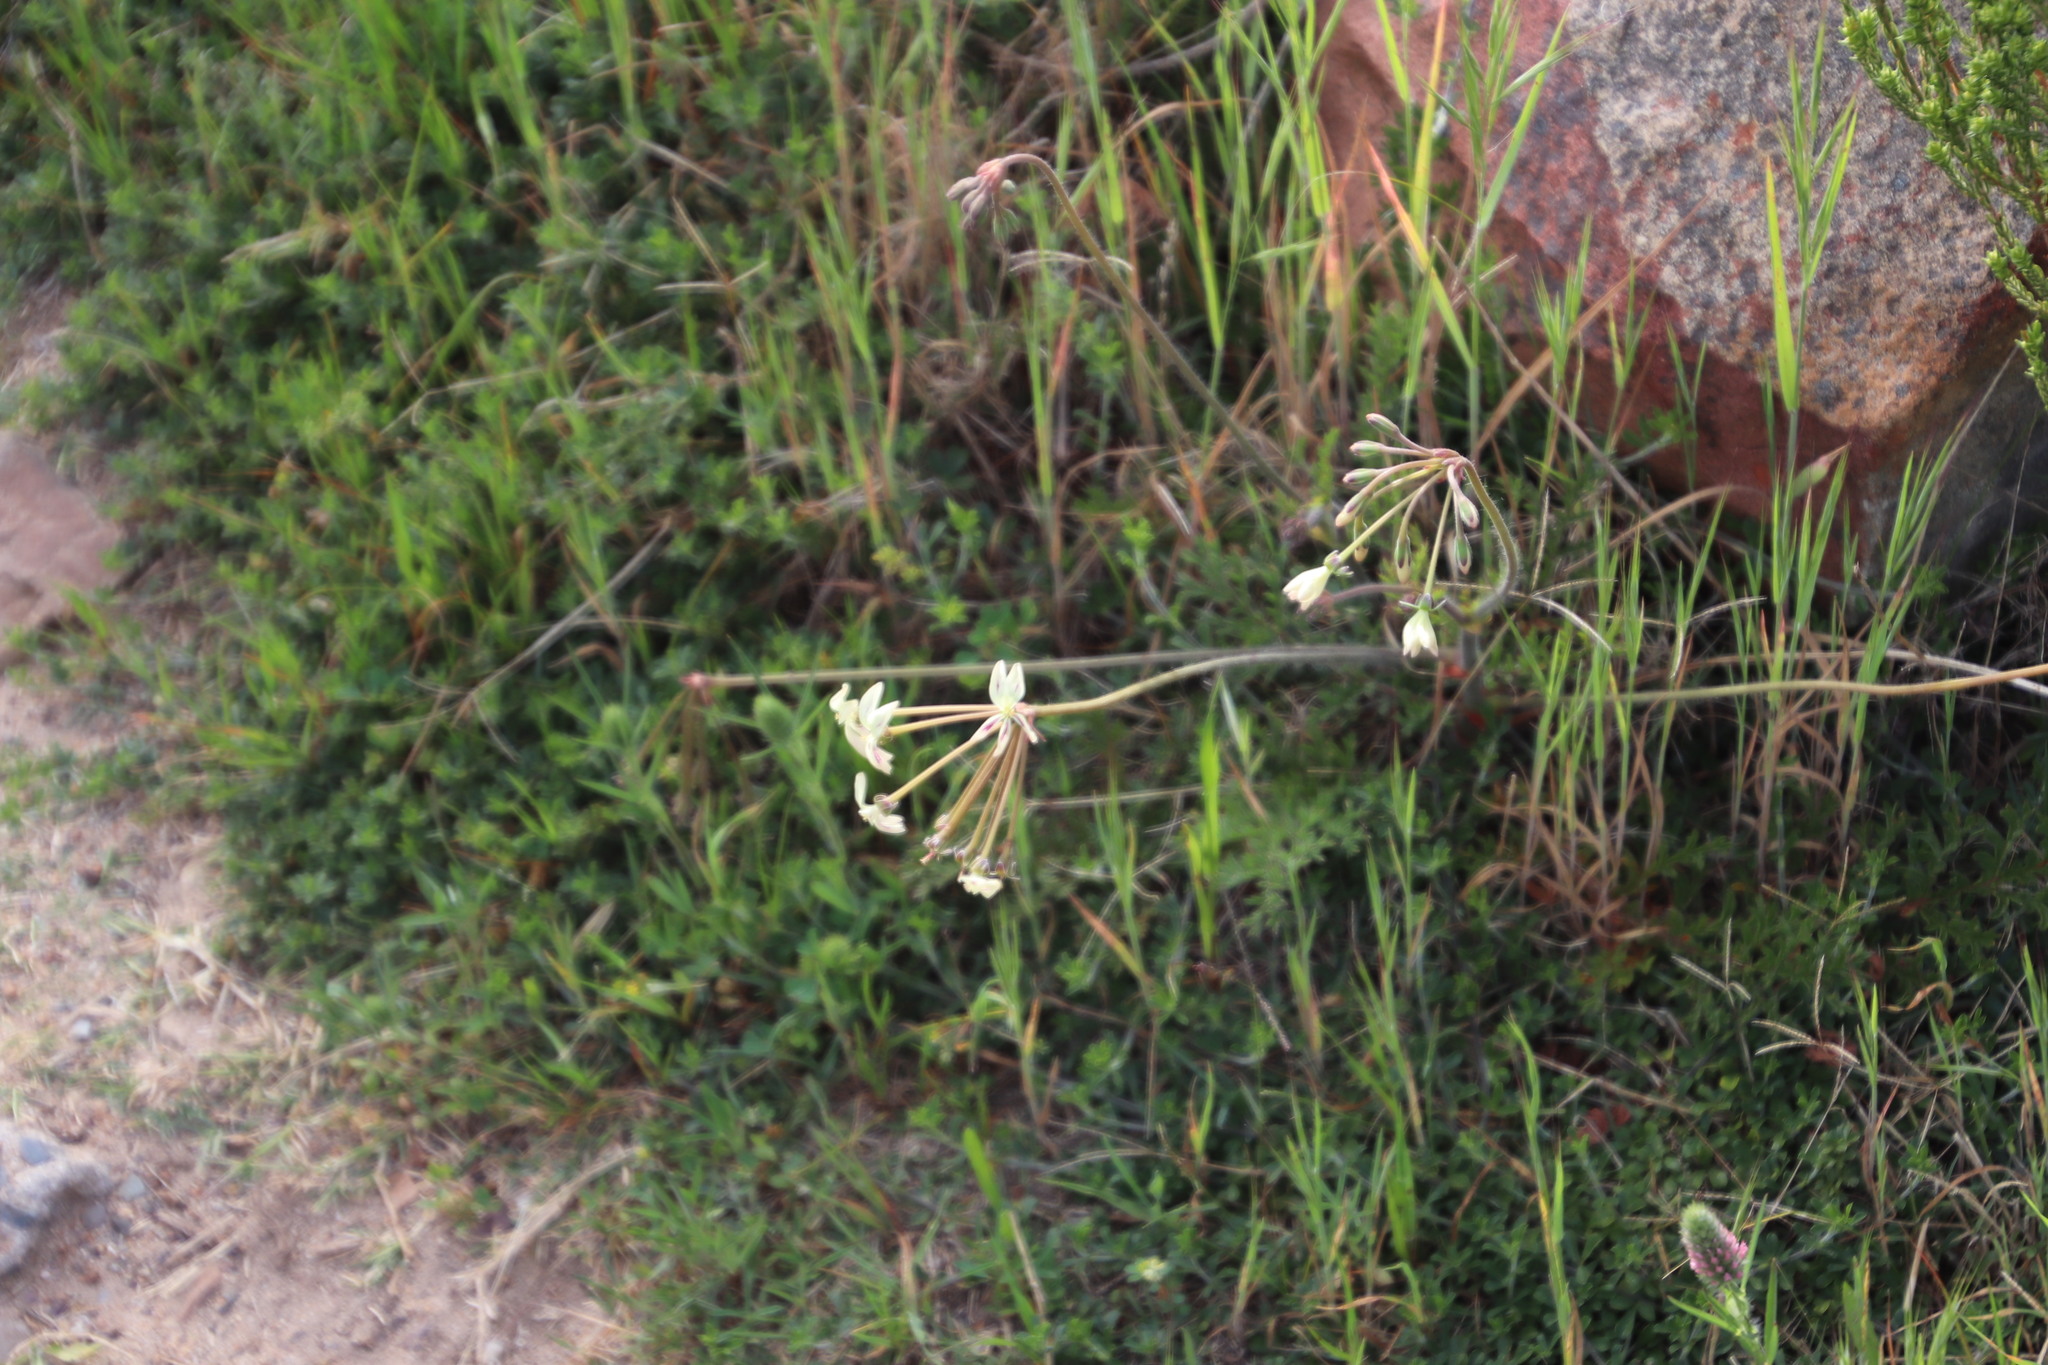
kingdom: Plantae
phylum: Tracheophyta
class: Magnoliopsida
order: Geraniales
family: Geraniaceae
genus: Pelargonium
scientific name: Pelargonium triste
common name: Night-scent pelargonium
